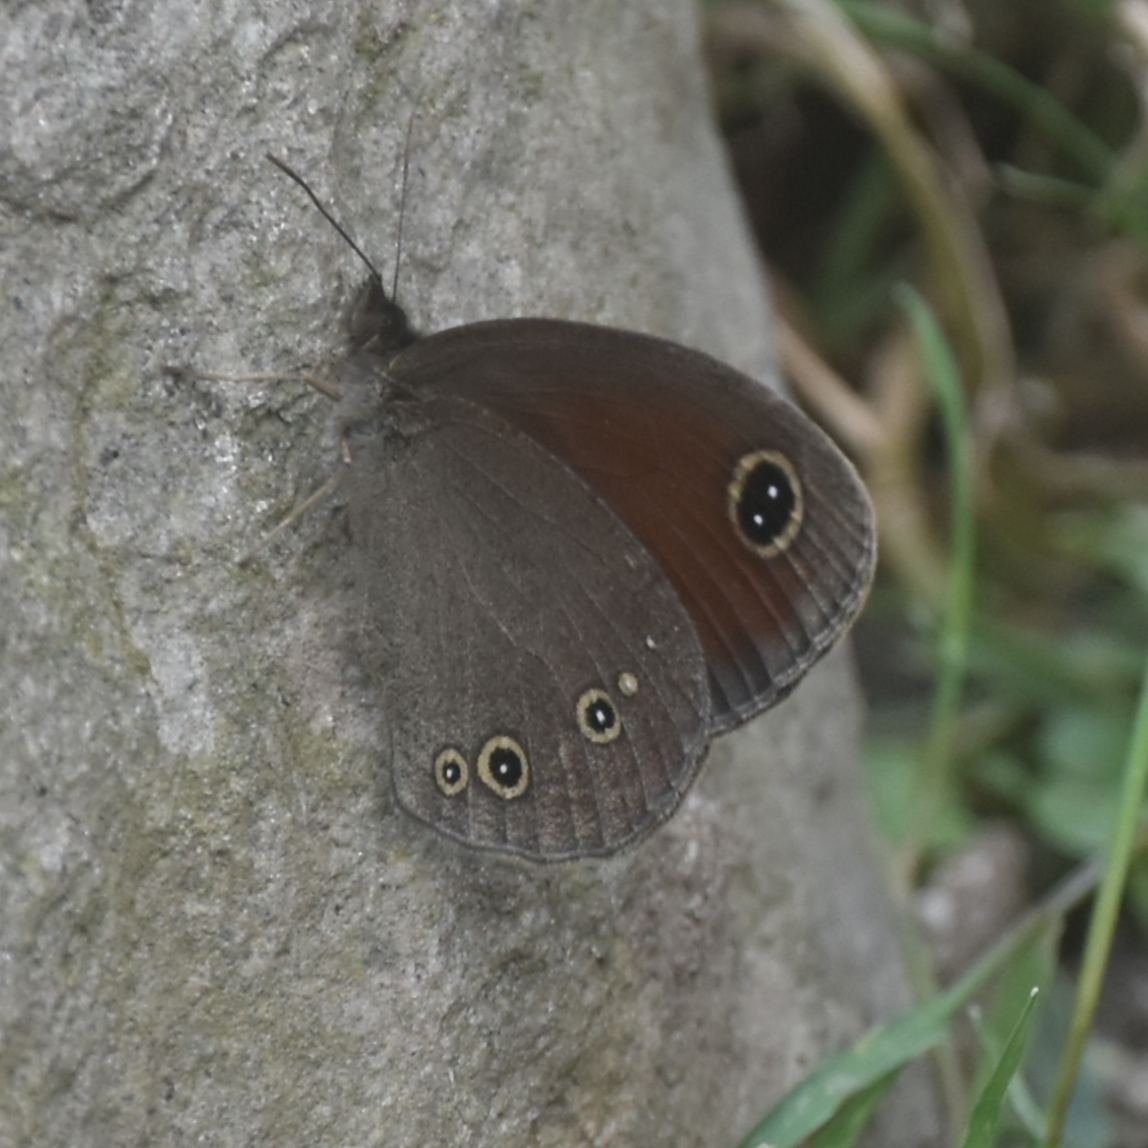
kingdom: Animalia
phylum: Arthropoda
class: Insecta
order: Lepidoptera
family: Nymphalidae
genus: Callerebia
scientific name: Callerebia nirmala
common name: Common argus
